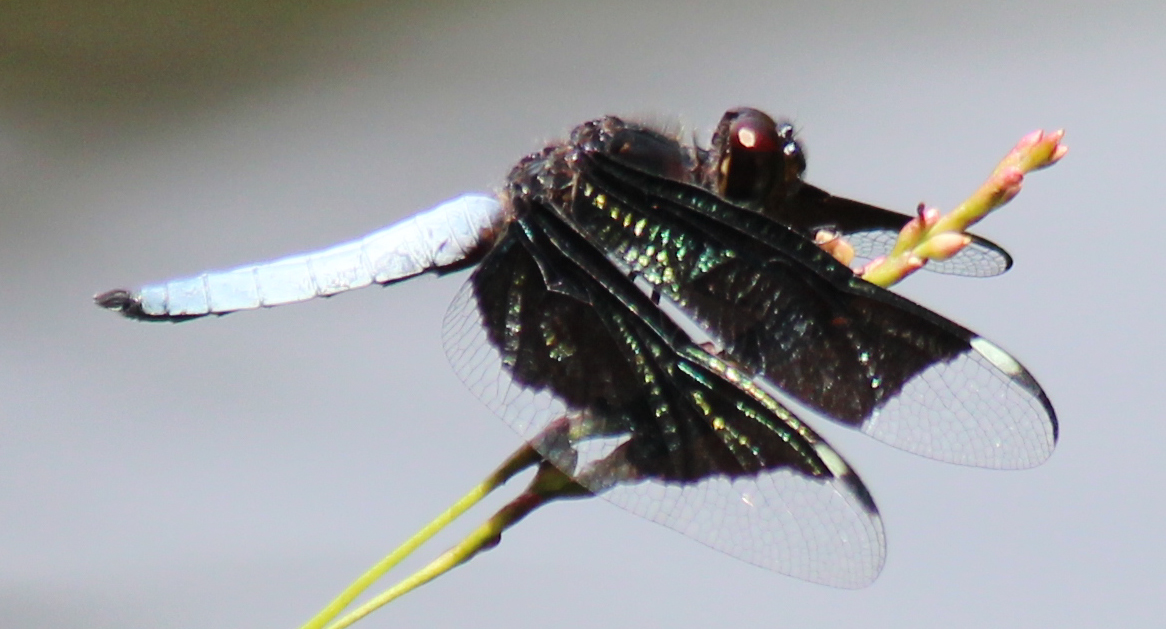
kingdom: Animalia
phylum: Arthropoda
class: Insecta
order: Odonata
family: Libellulidae
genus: Palpopleura
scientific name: Palpopleura lucia
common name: Lucia widow
